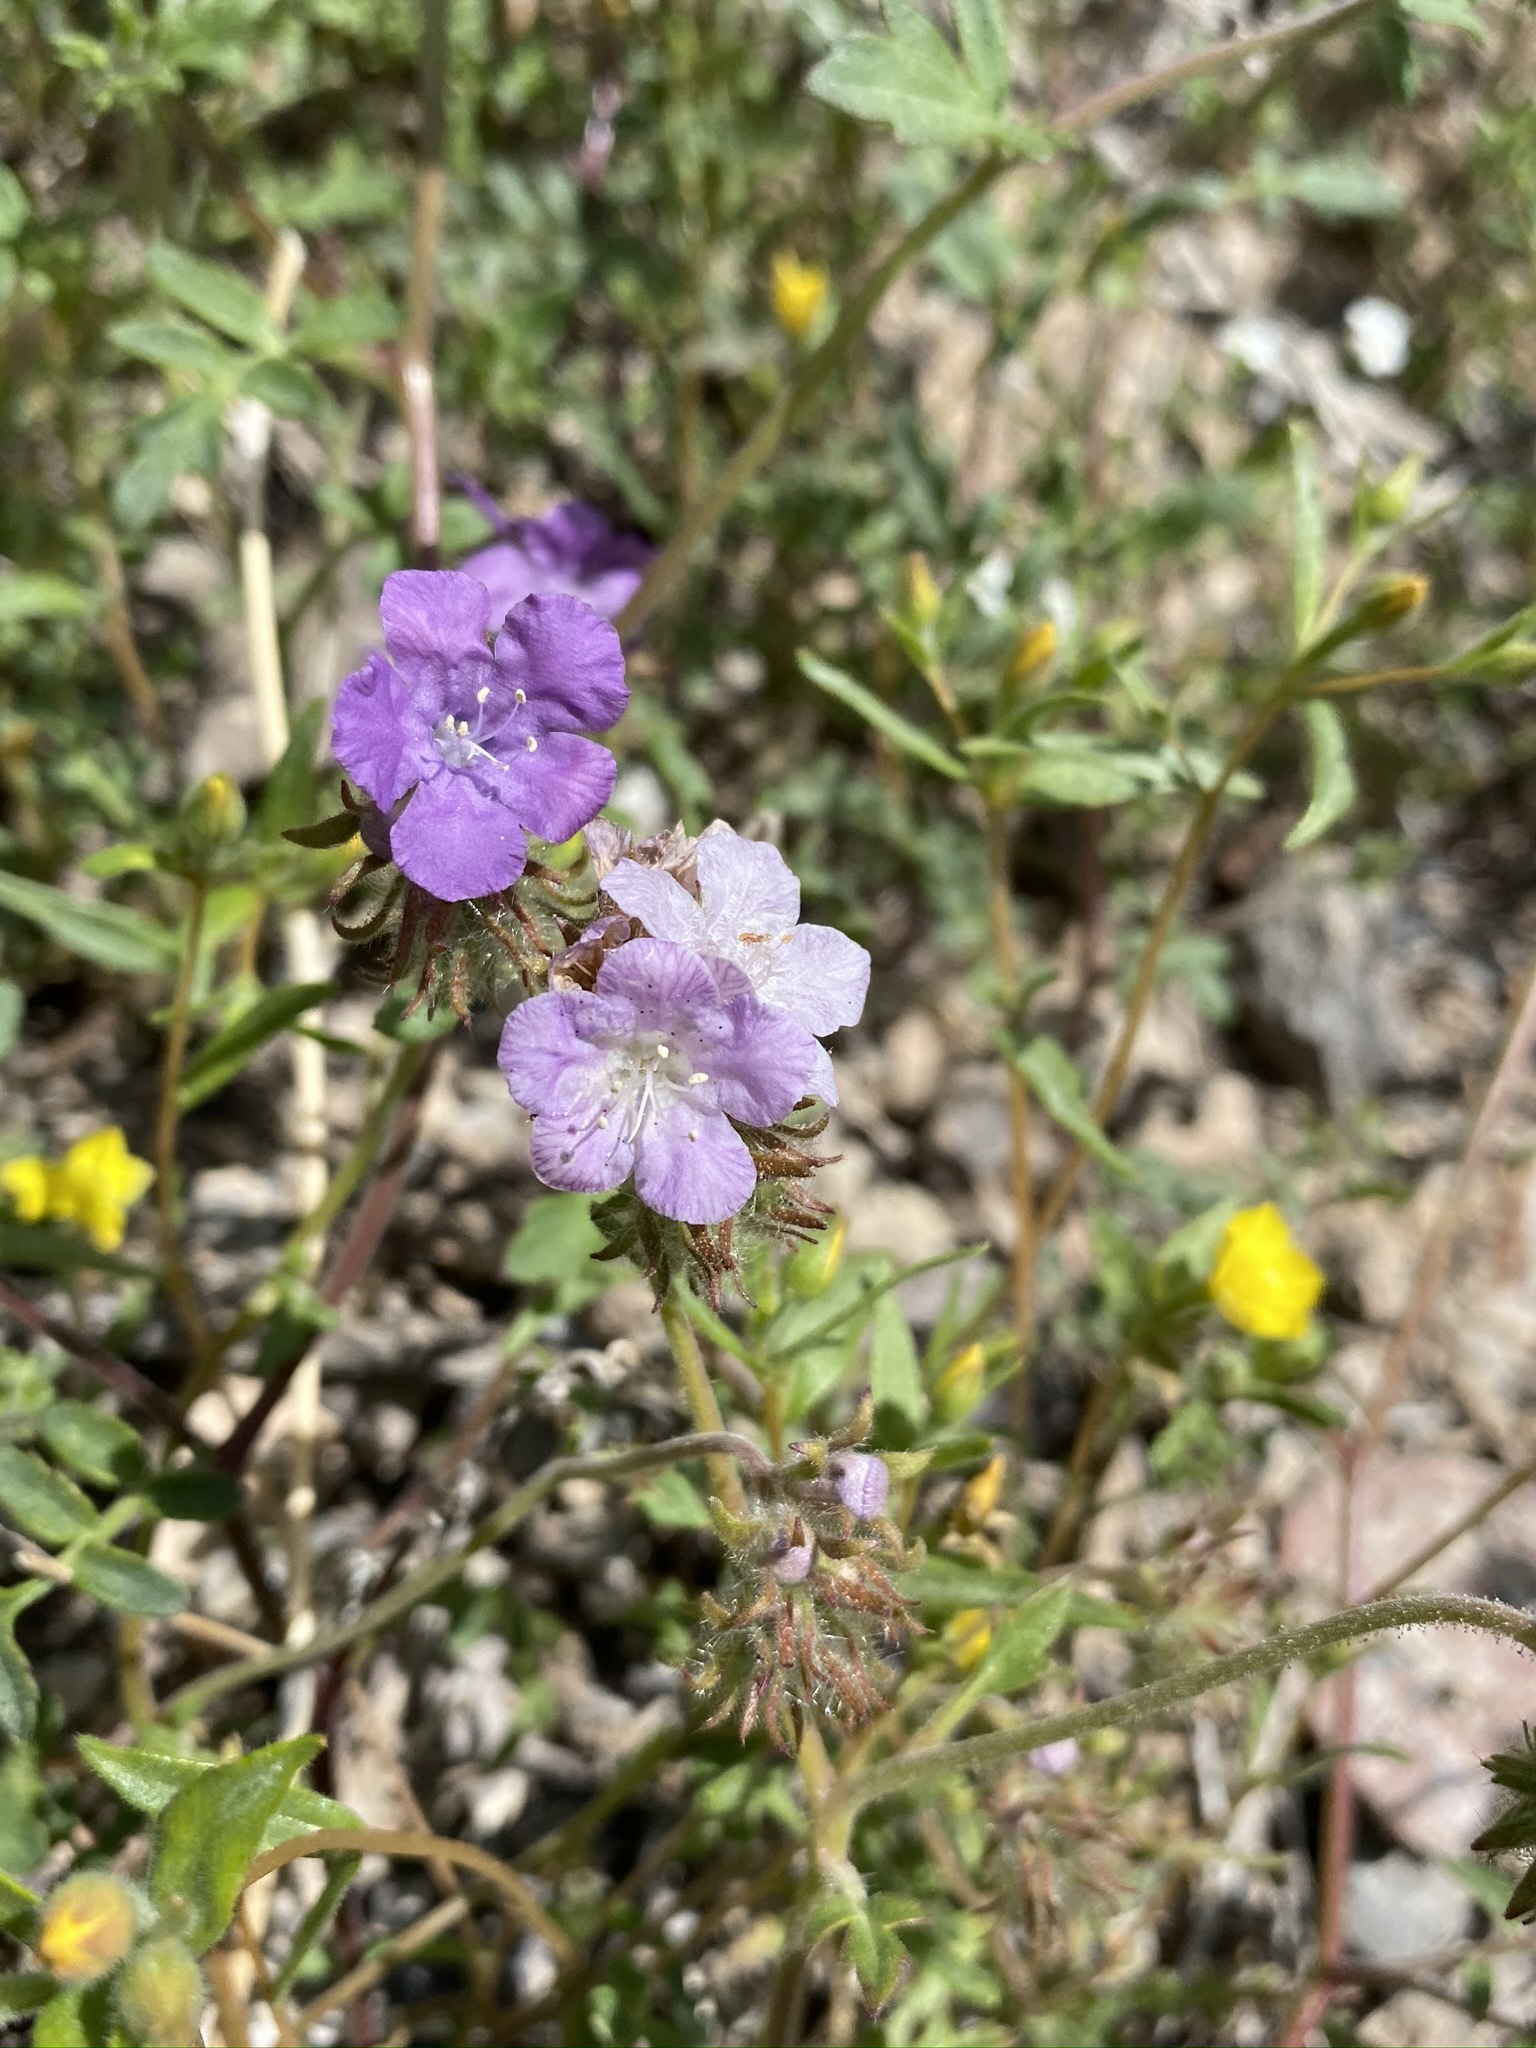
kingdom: Plantae
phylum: Tracheophyta
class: Magnoliopsida
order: Boraginales
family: Hydrophyllaceae
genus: Phacelia
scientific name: Phacelia vallis-mortae
